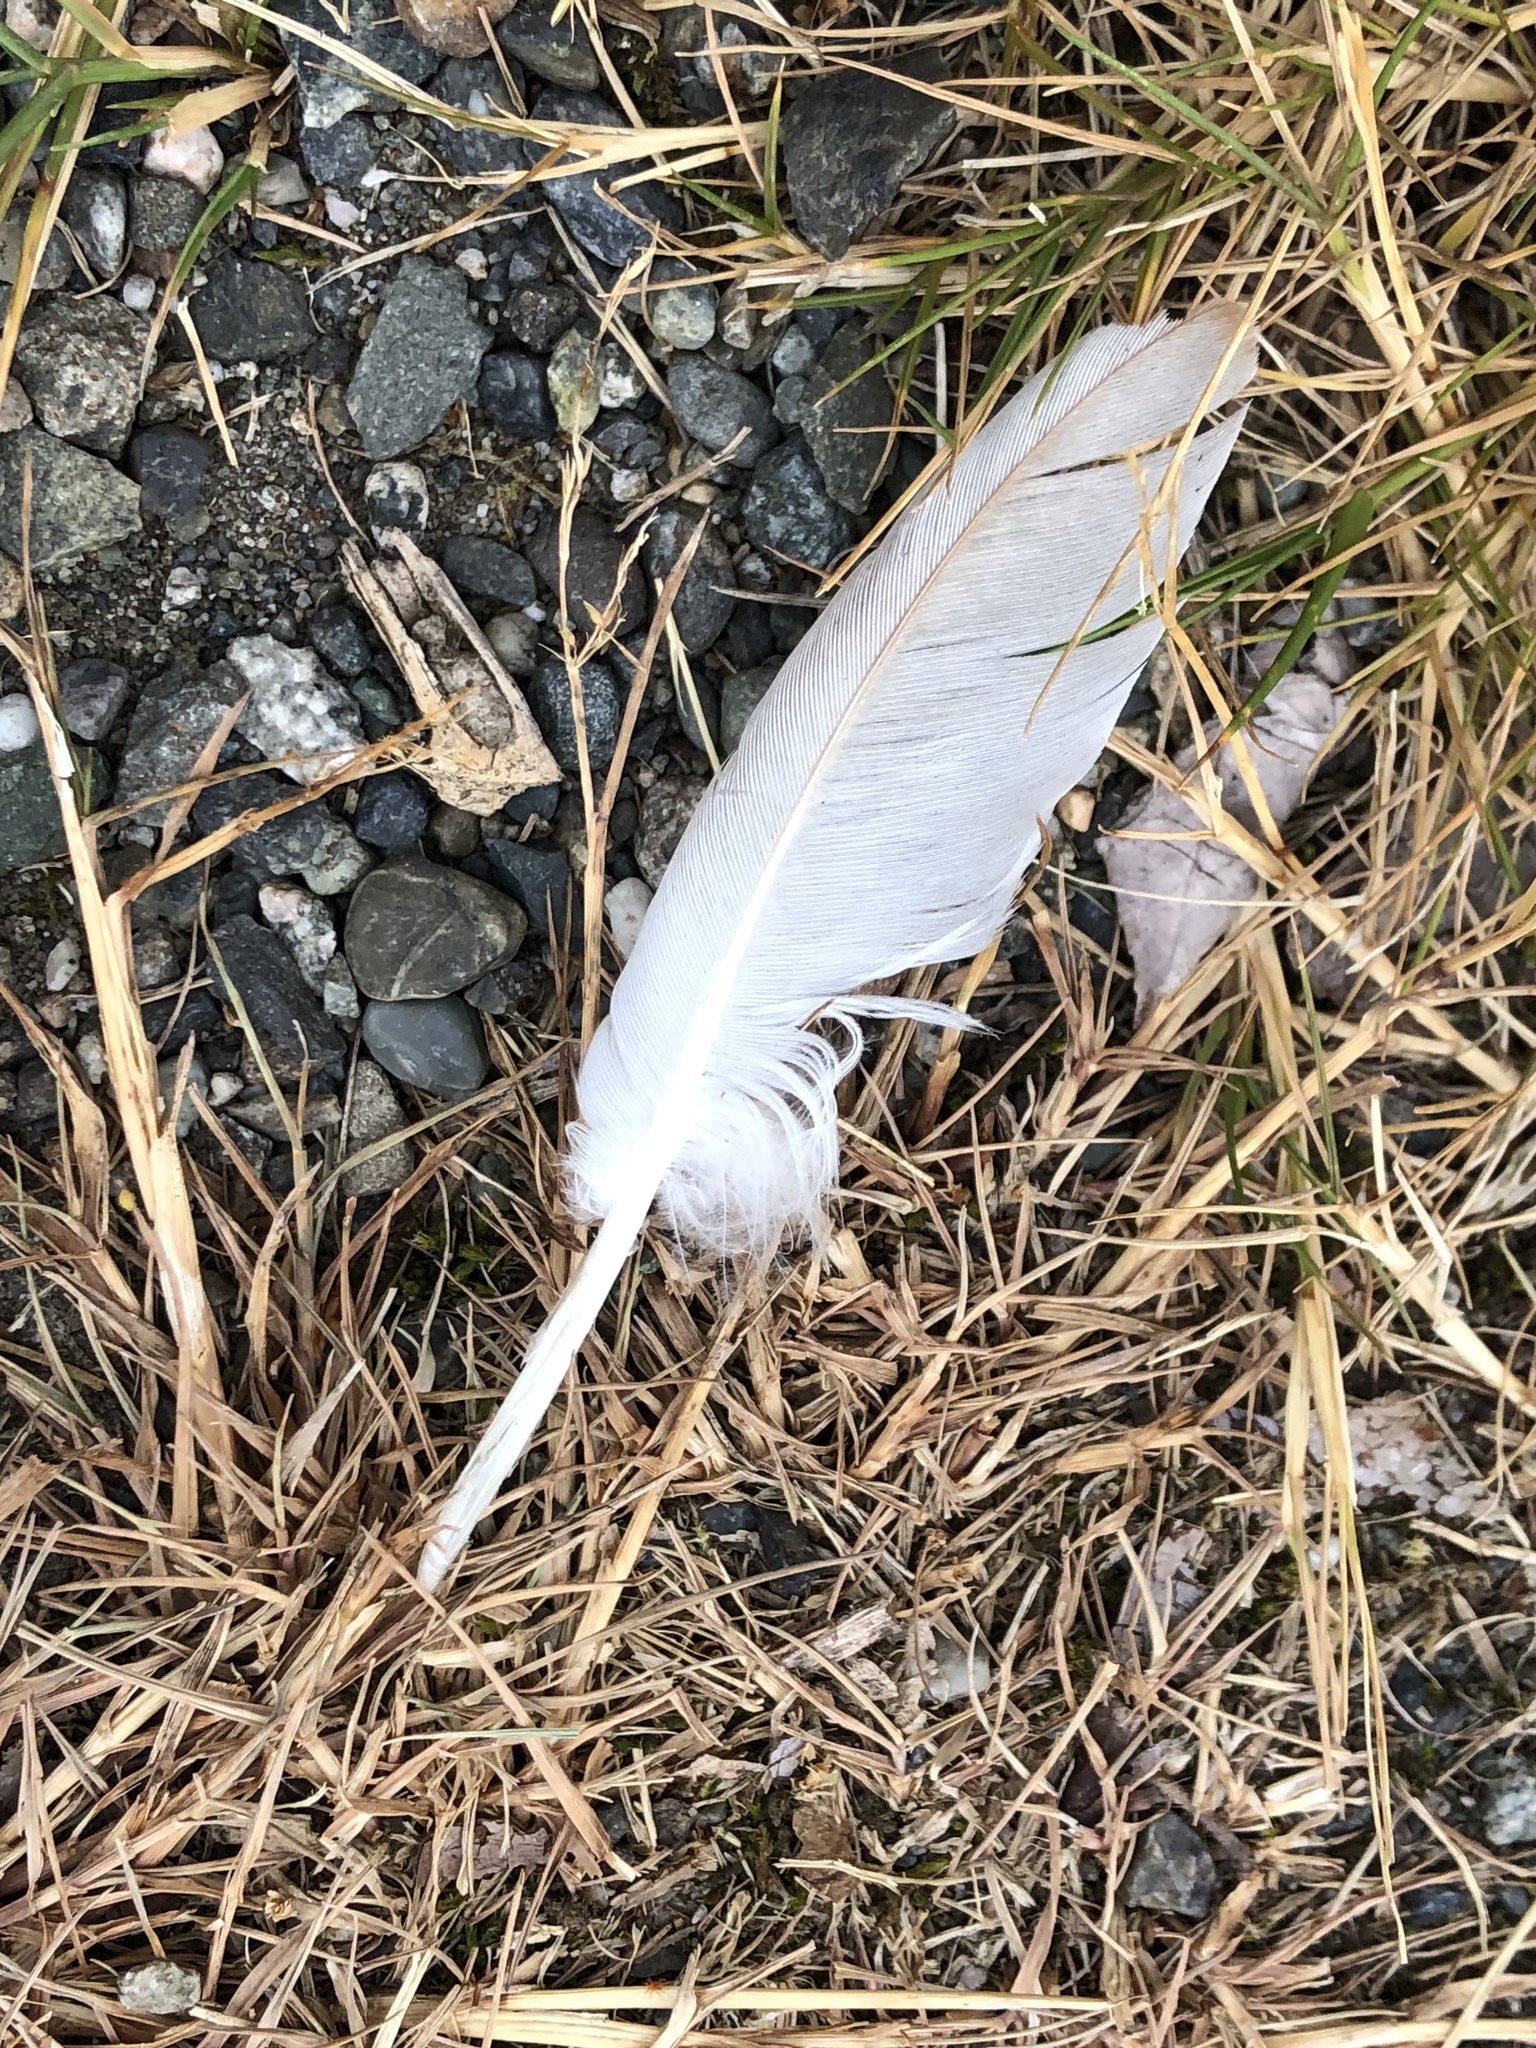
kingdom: Animalia
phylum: Chordata
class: Aves
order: Columbiformes
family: Columbidae
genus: Columba
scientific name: Columba livia
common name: Rock pigeon
